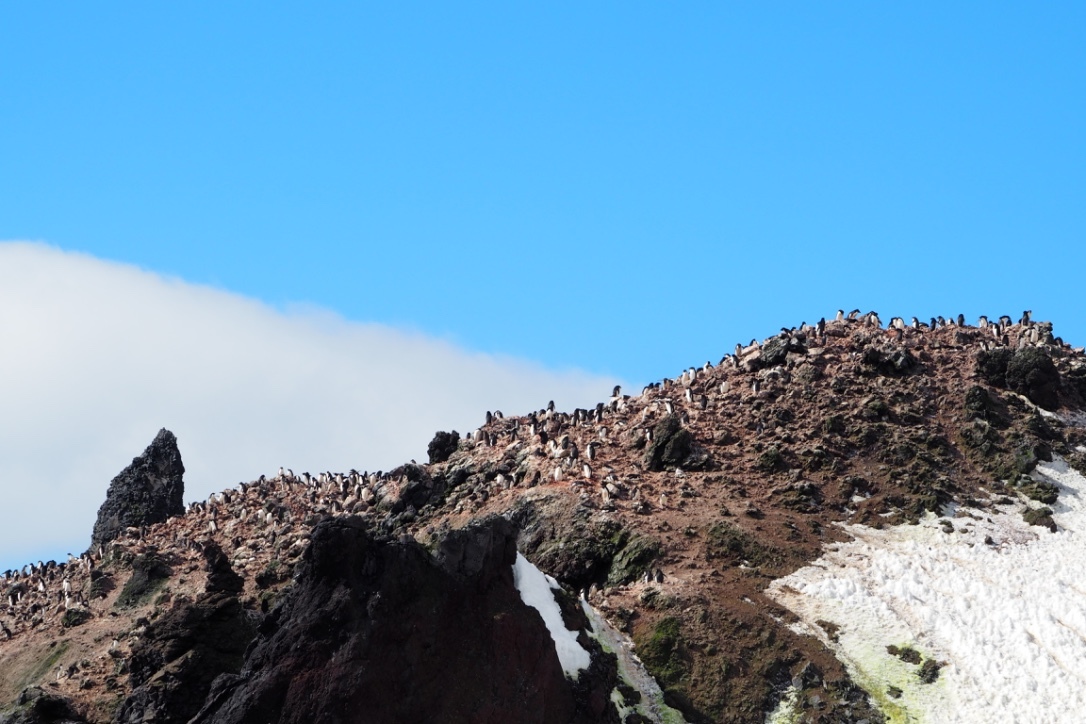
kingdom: Animalia
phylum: Chordata
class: Aves
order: Sphenisciformes
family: Spheniscidae
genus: Pygoscelis
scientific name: Pygoscelis adeliae
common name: Adelie penguin
